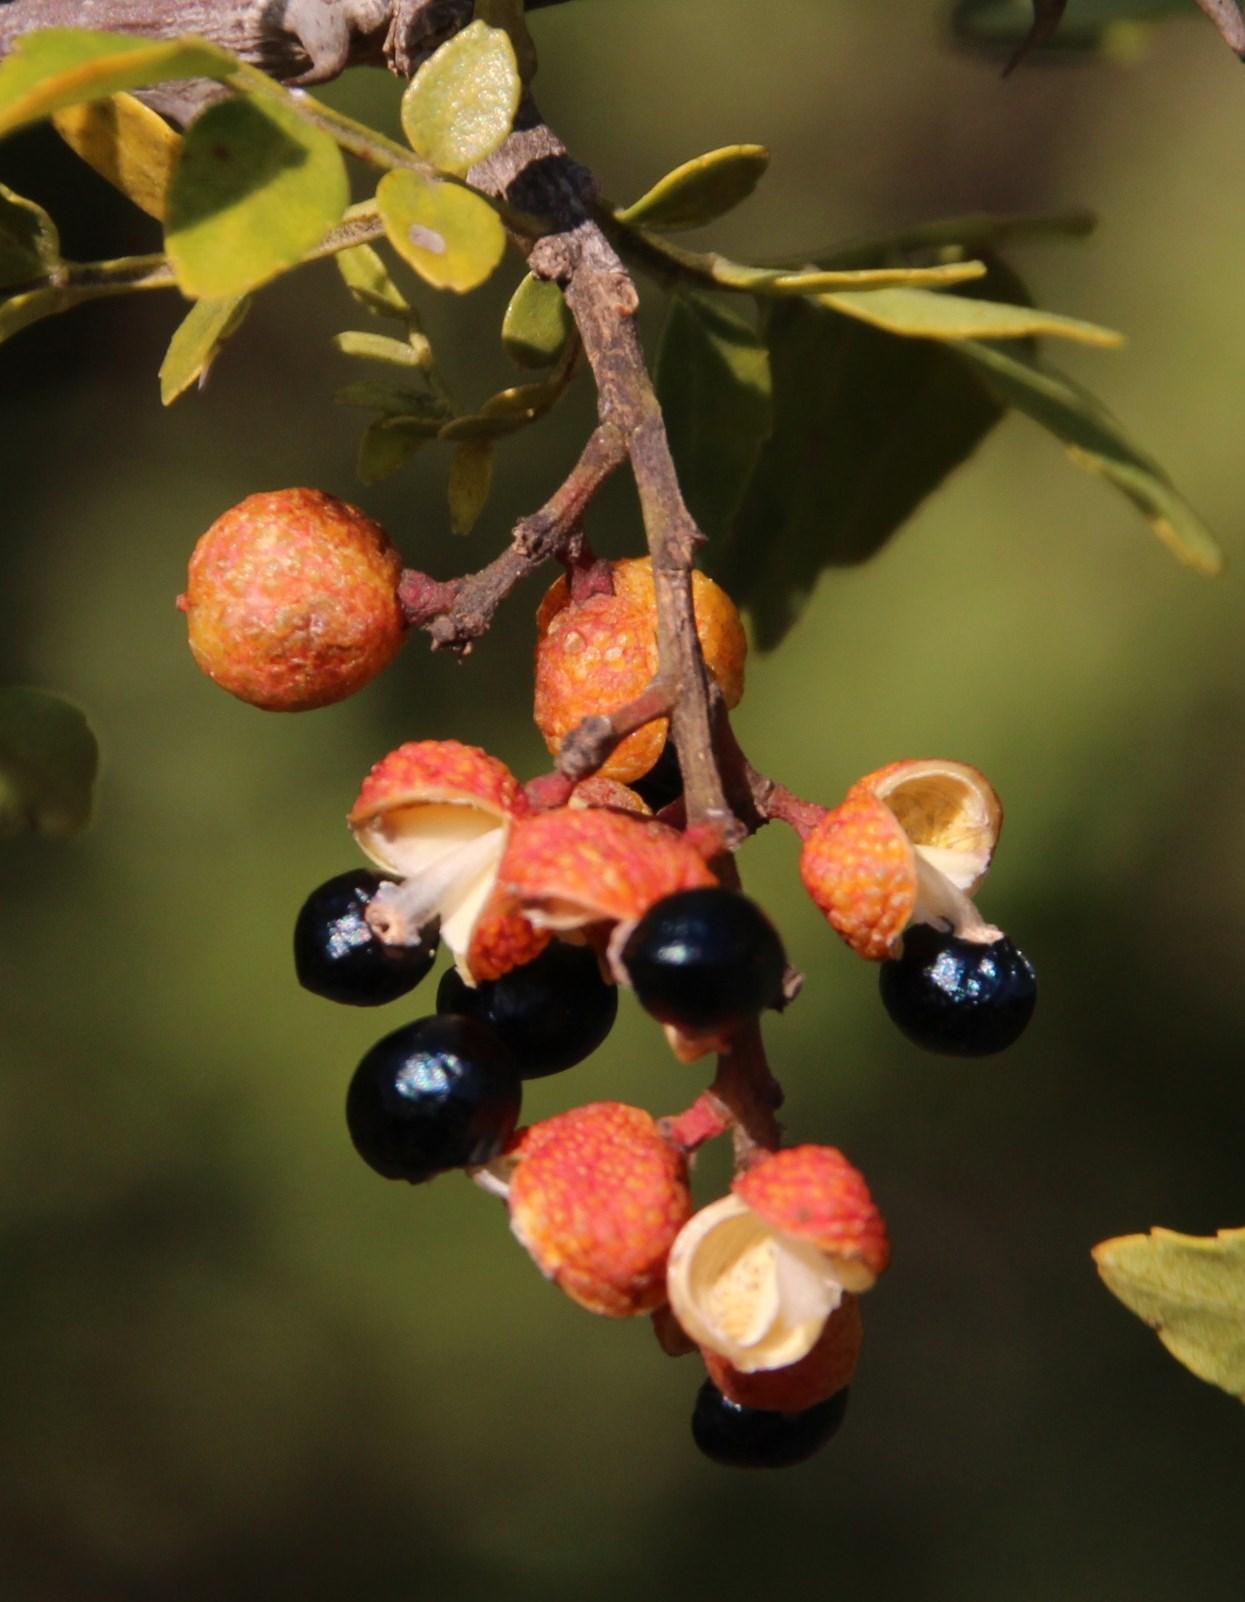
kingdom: Plantae
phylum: Tracheophyta
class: Magnoliopsida
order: Sapindales
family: Rutaceae
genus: Zanthoxylum
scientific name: Zanthoxylum capense
